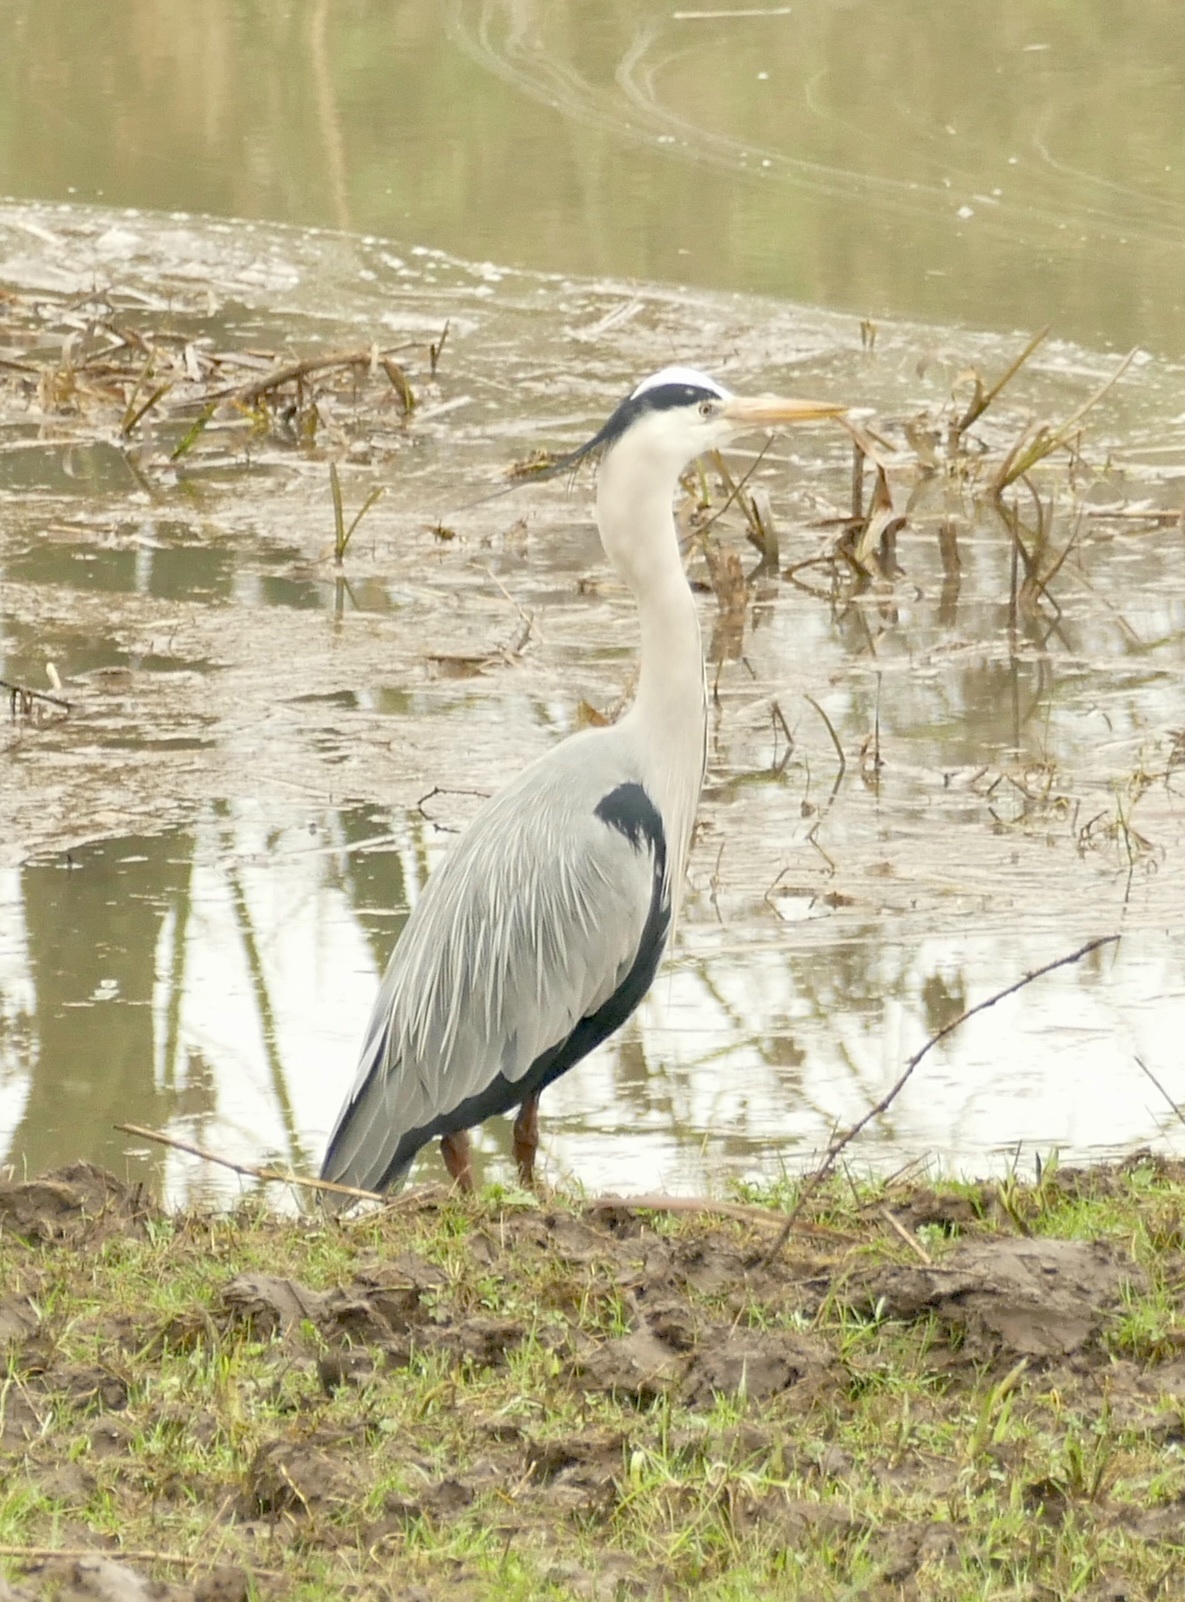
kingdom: Animalia
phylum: Chordata
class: Aves
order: Pelecaniformes
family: Ardeidae
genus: Ardea
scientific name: Ardea cinerea
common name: Grey heron
